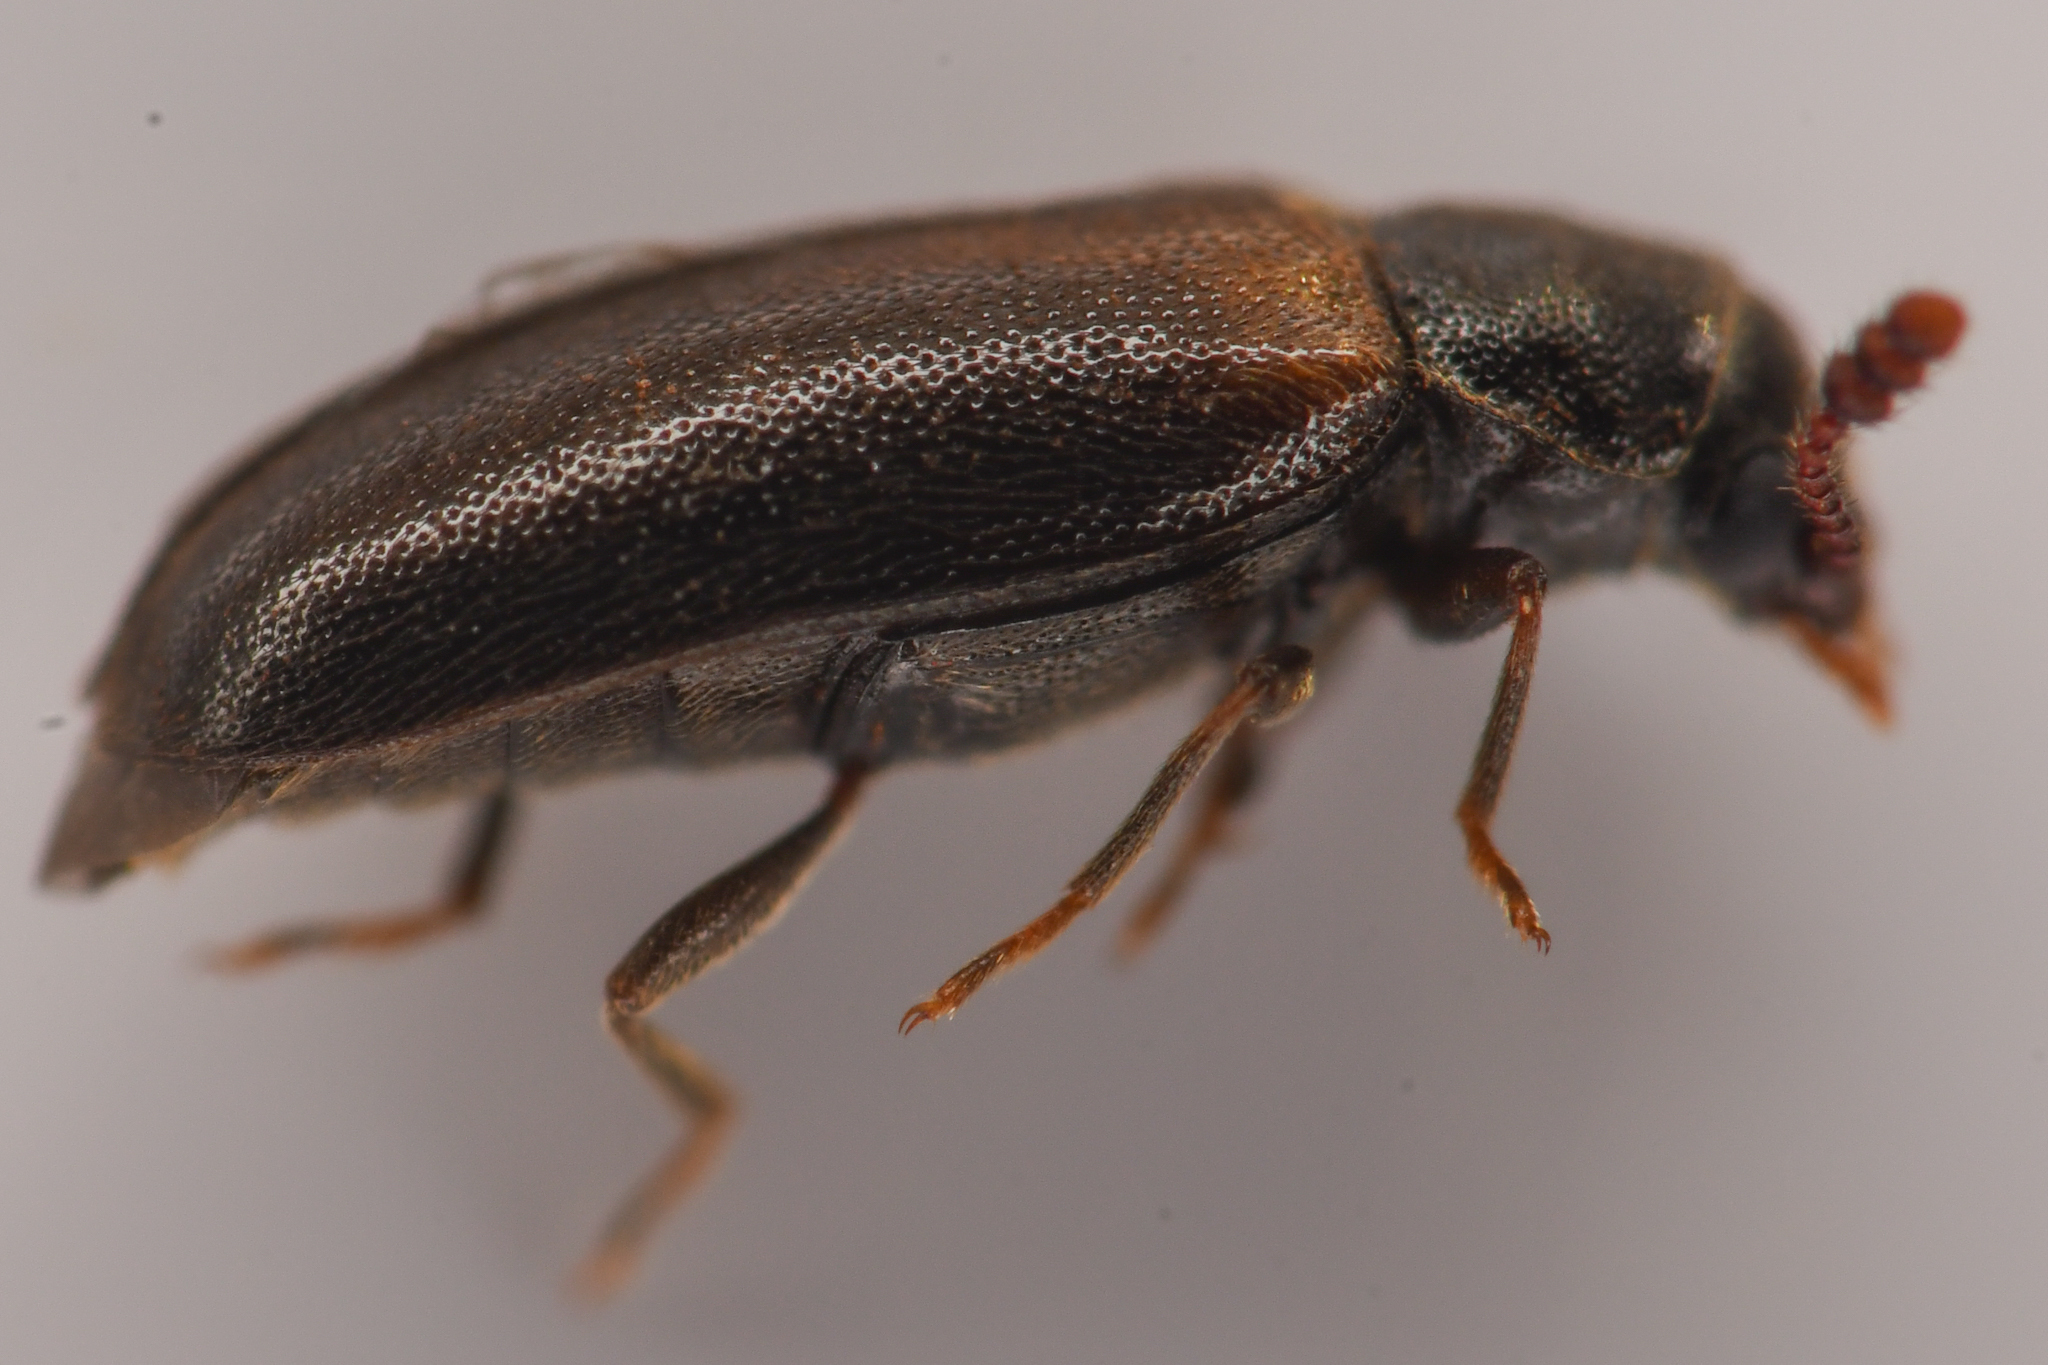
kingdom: Animalia
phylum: Arthropoda
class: Insecta
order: Coleoptera
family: Tetratomidae
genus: Triphyllia
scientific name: Triphyllia elongatus
